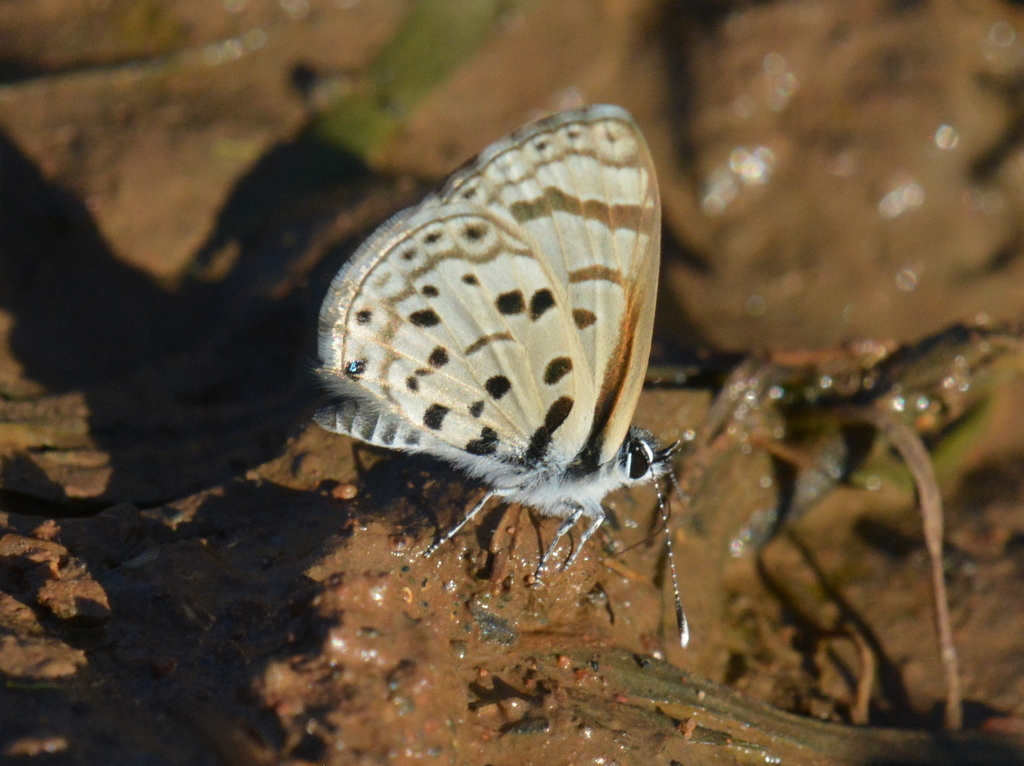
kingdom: Animalia
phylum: Arthropoda
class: Insecta
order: Lepidoptera
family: Lycaenidae
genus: Azanus
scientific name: Azanus natalensis
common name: Natal babul blue
